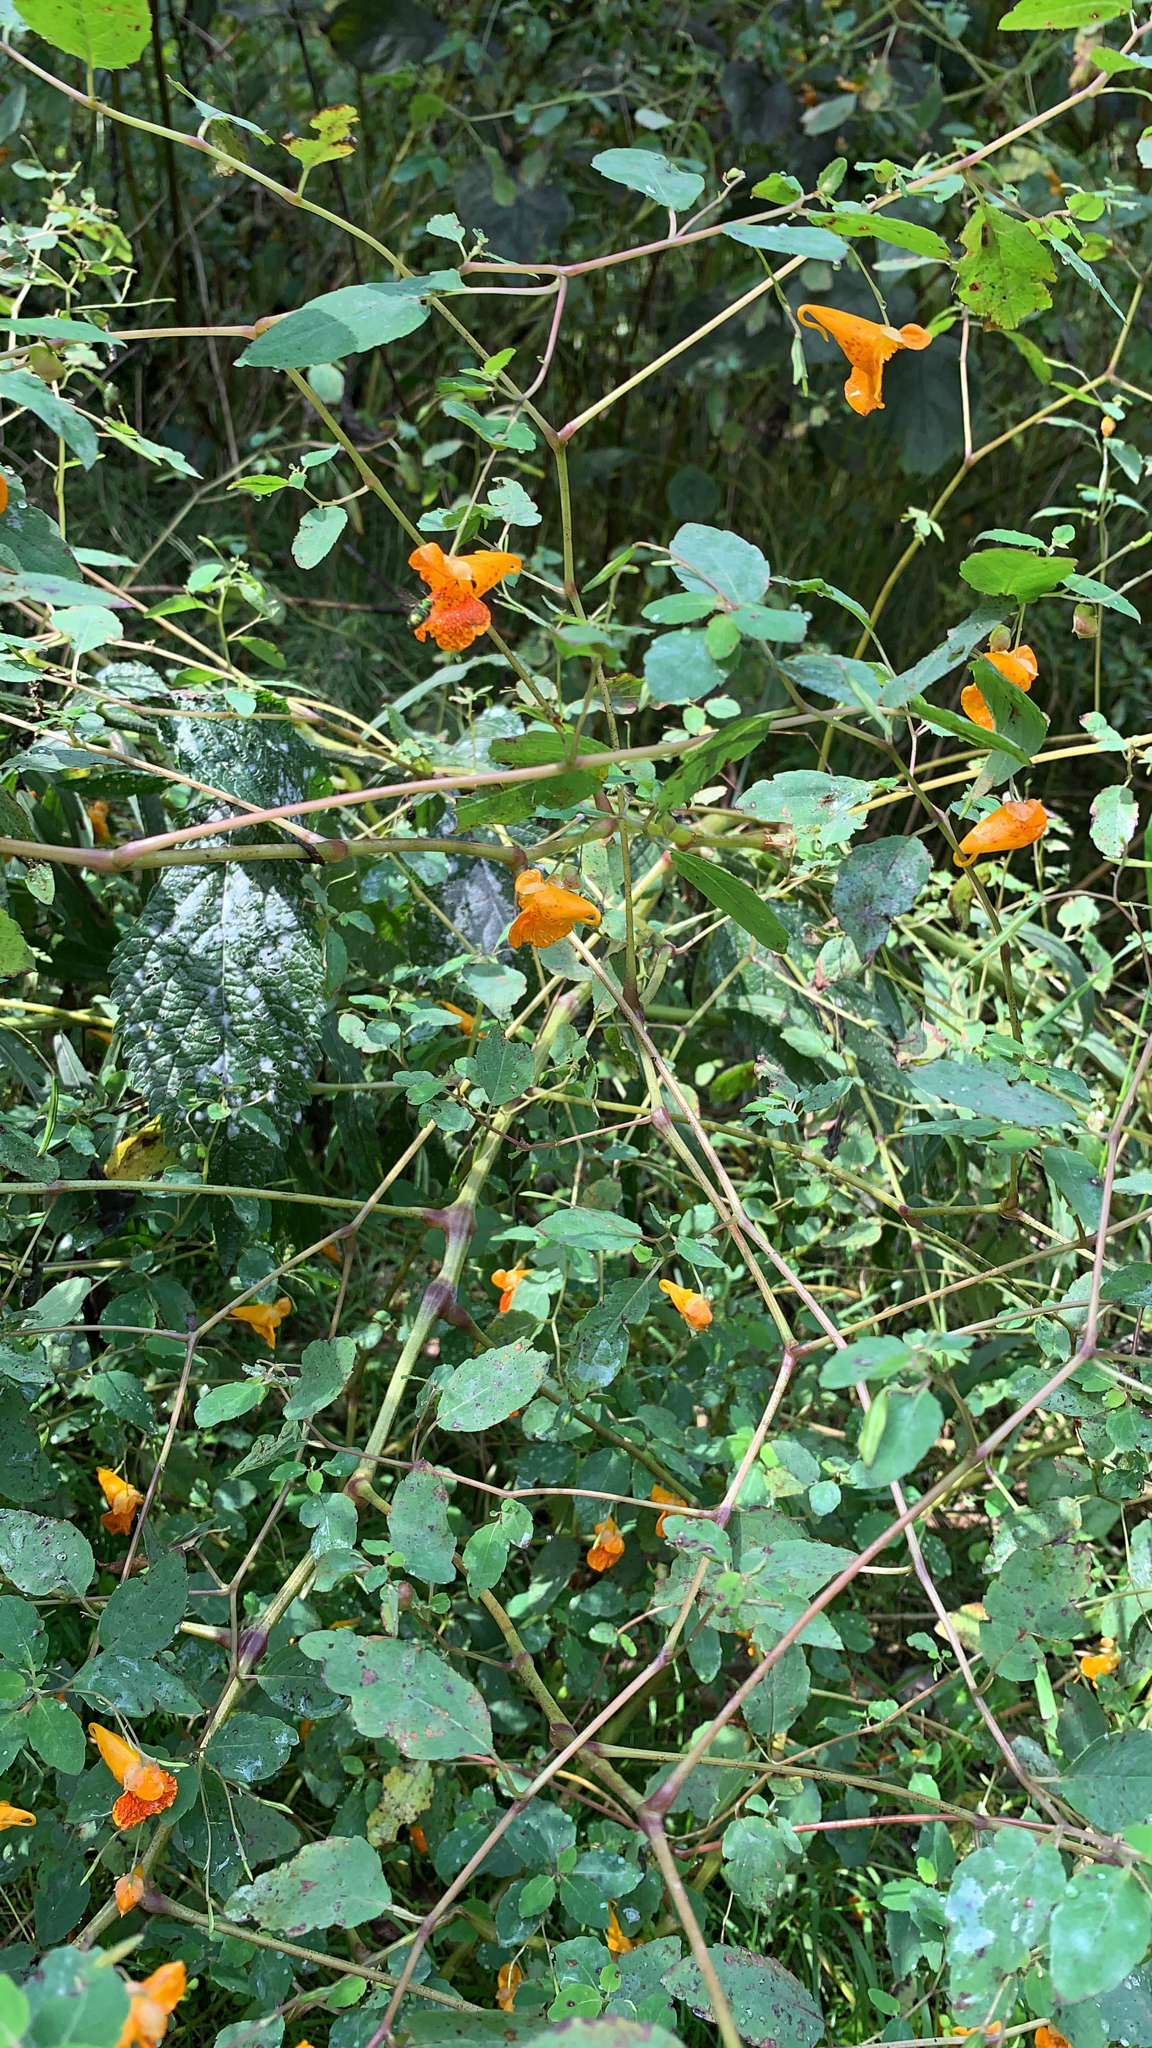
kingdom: Plantae
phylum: Tracheophyta
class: Magnoliopsida
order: Ericales
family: Balsaminaceae
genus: Impatiens
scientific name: Impatiens capensis
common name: Orange balsam
